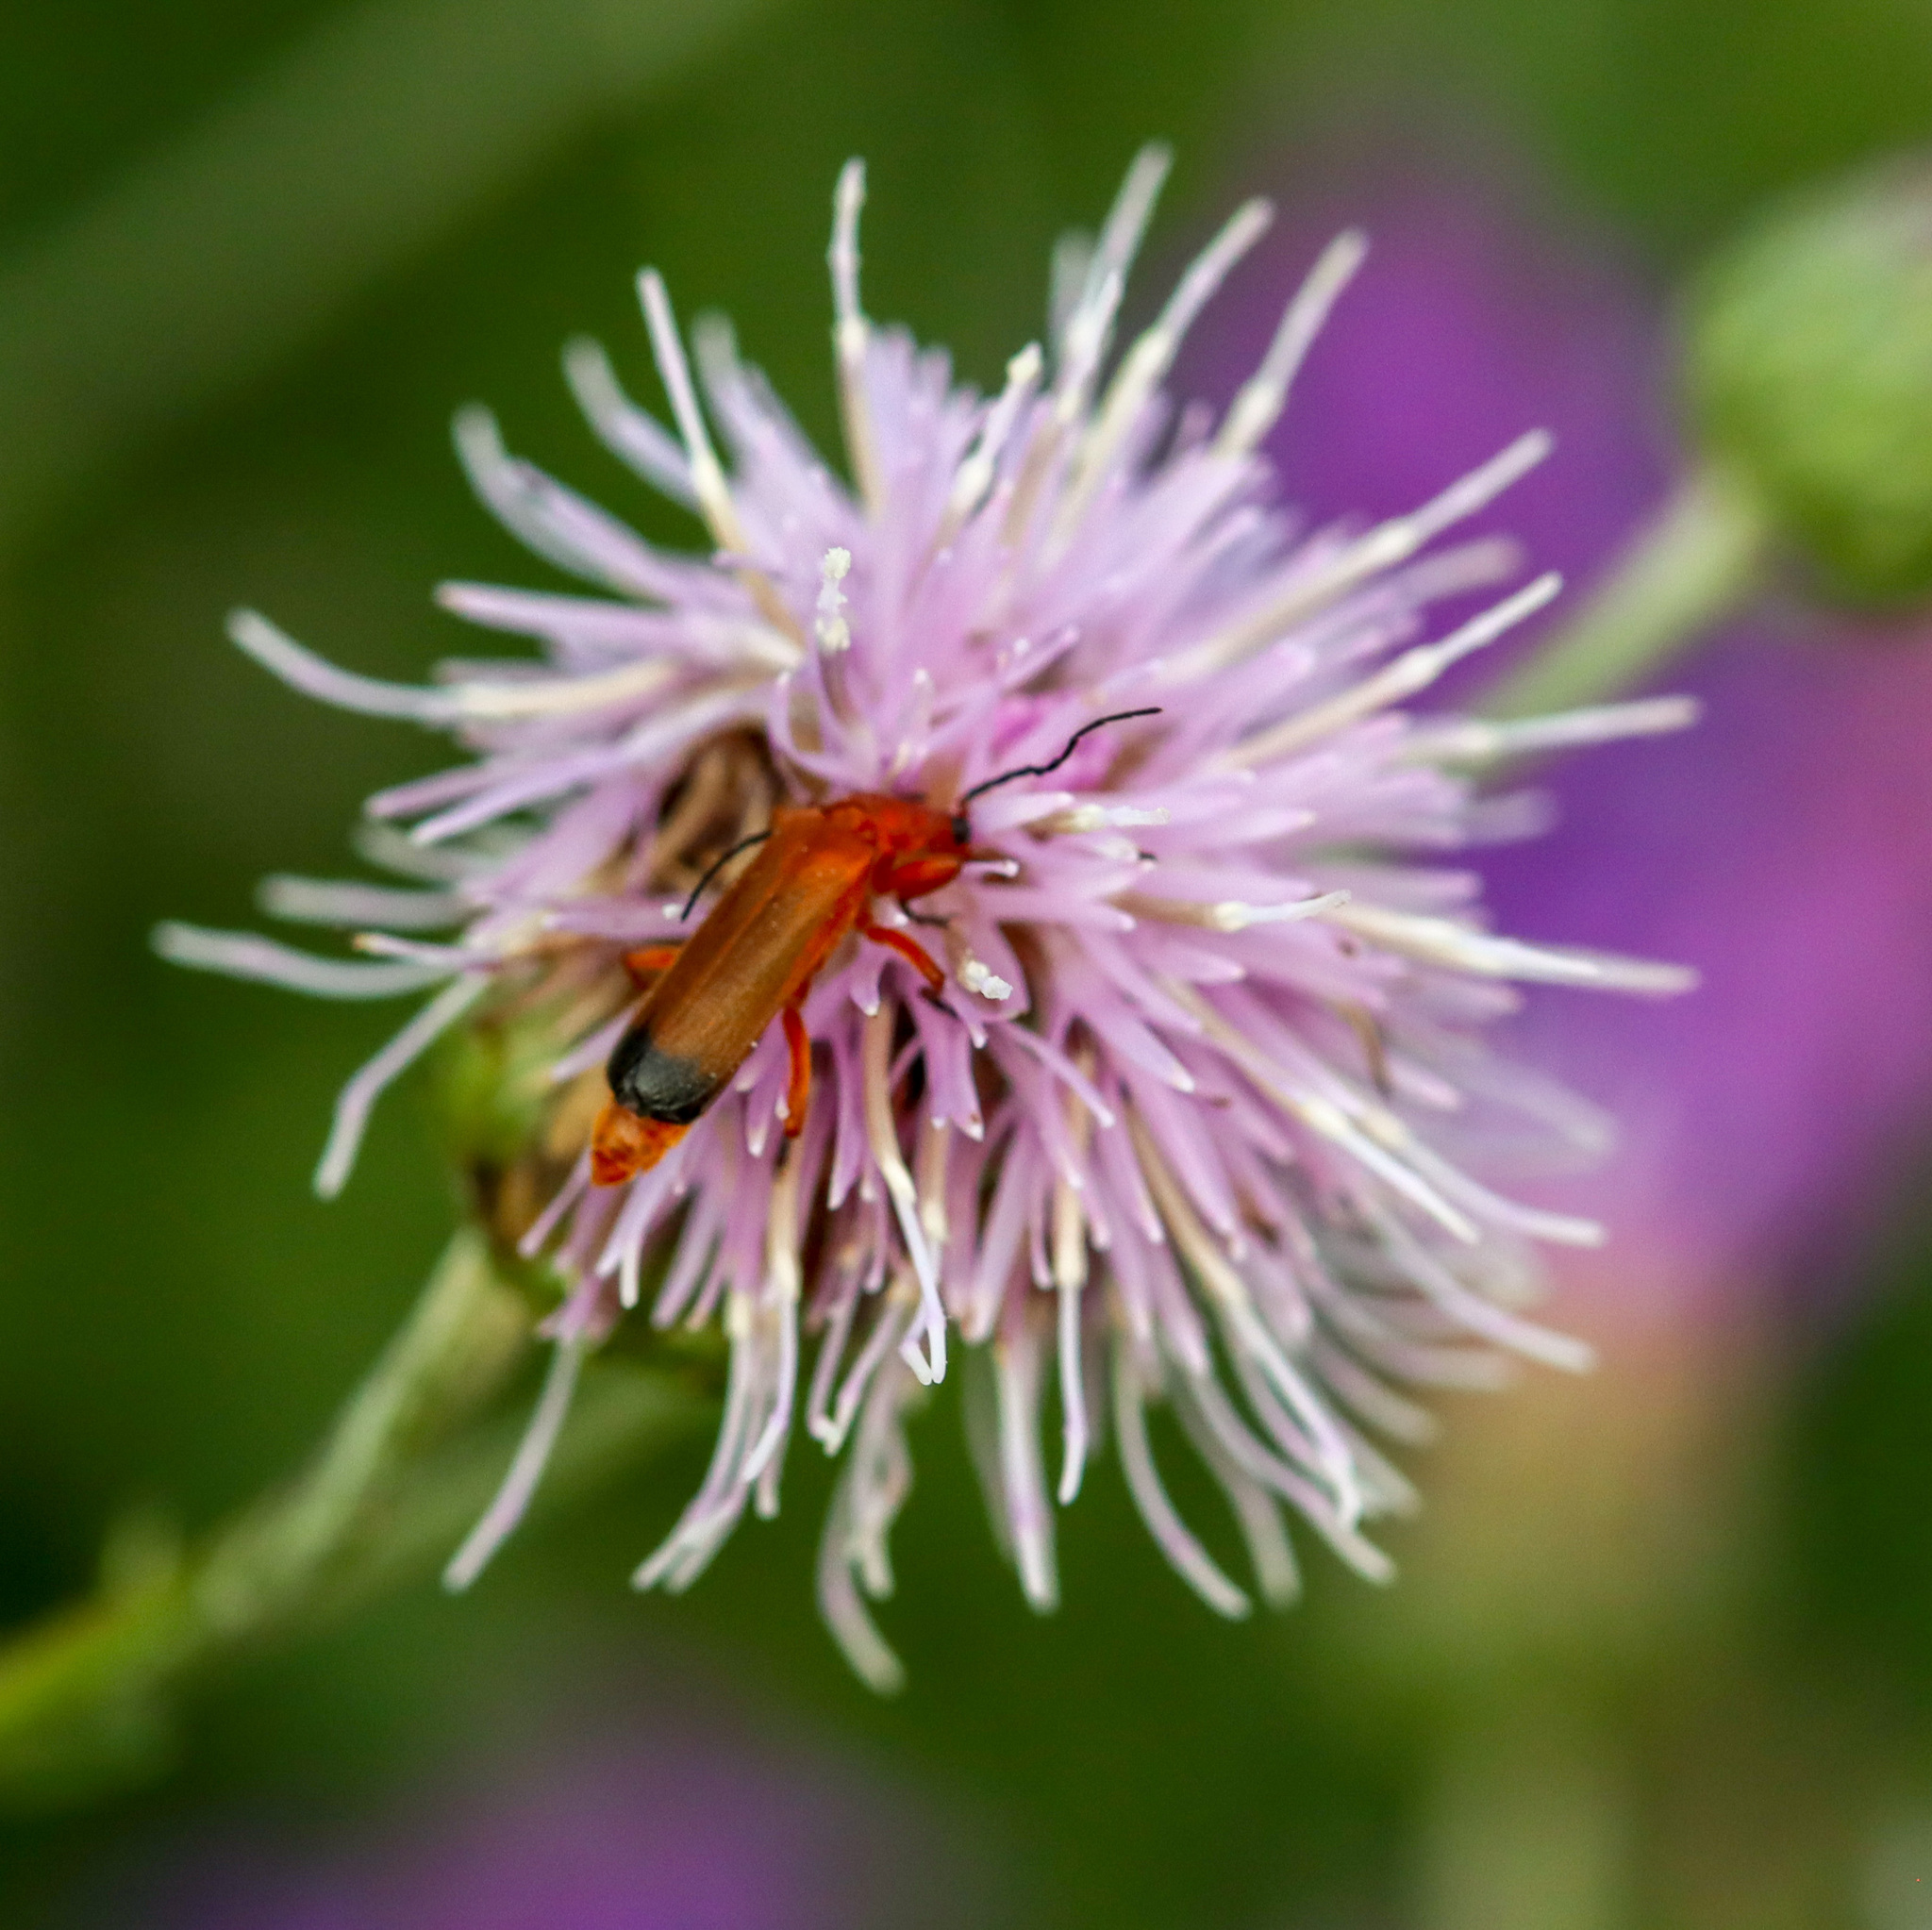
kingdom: Animalia
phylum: Arthropoda
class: Insecta
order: Coleoptera
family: Cantharidae
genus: Rhagonycha
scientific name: Rhagonycha fulva
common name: Common red soldier beetle
